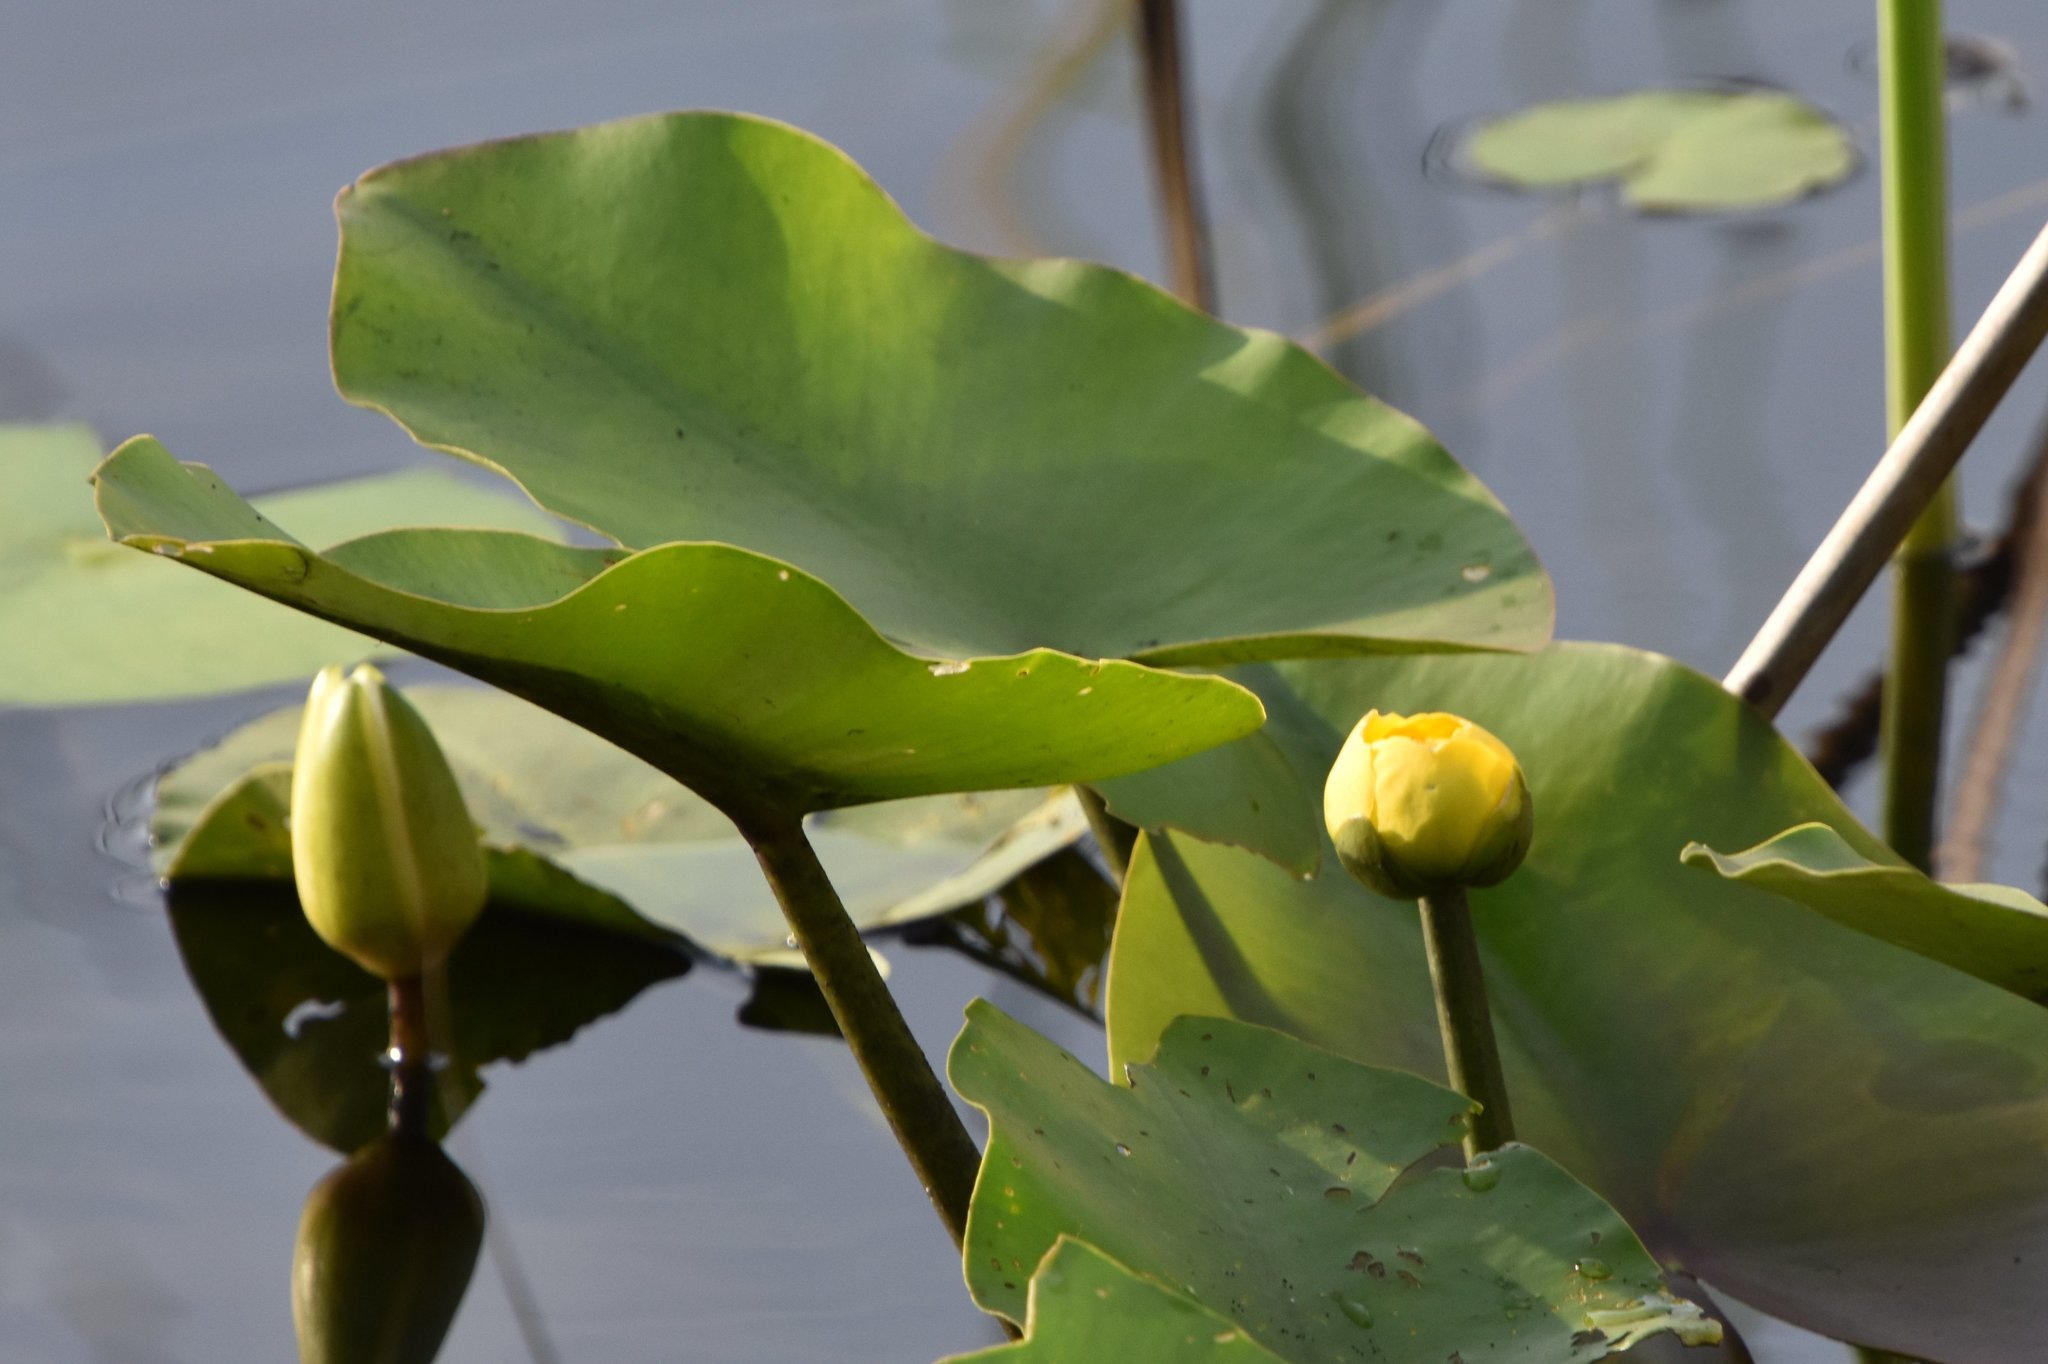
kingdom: Plantae
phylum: Tracheophyta
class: Magnoliopsida
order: Nymphaeales
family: Nymphaeaceae
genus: Nuphar
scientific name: Nuphar advena
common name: Spatter-dock
